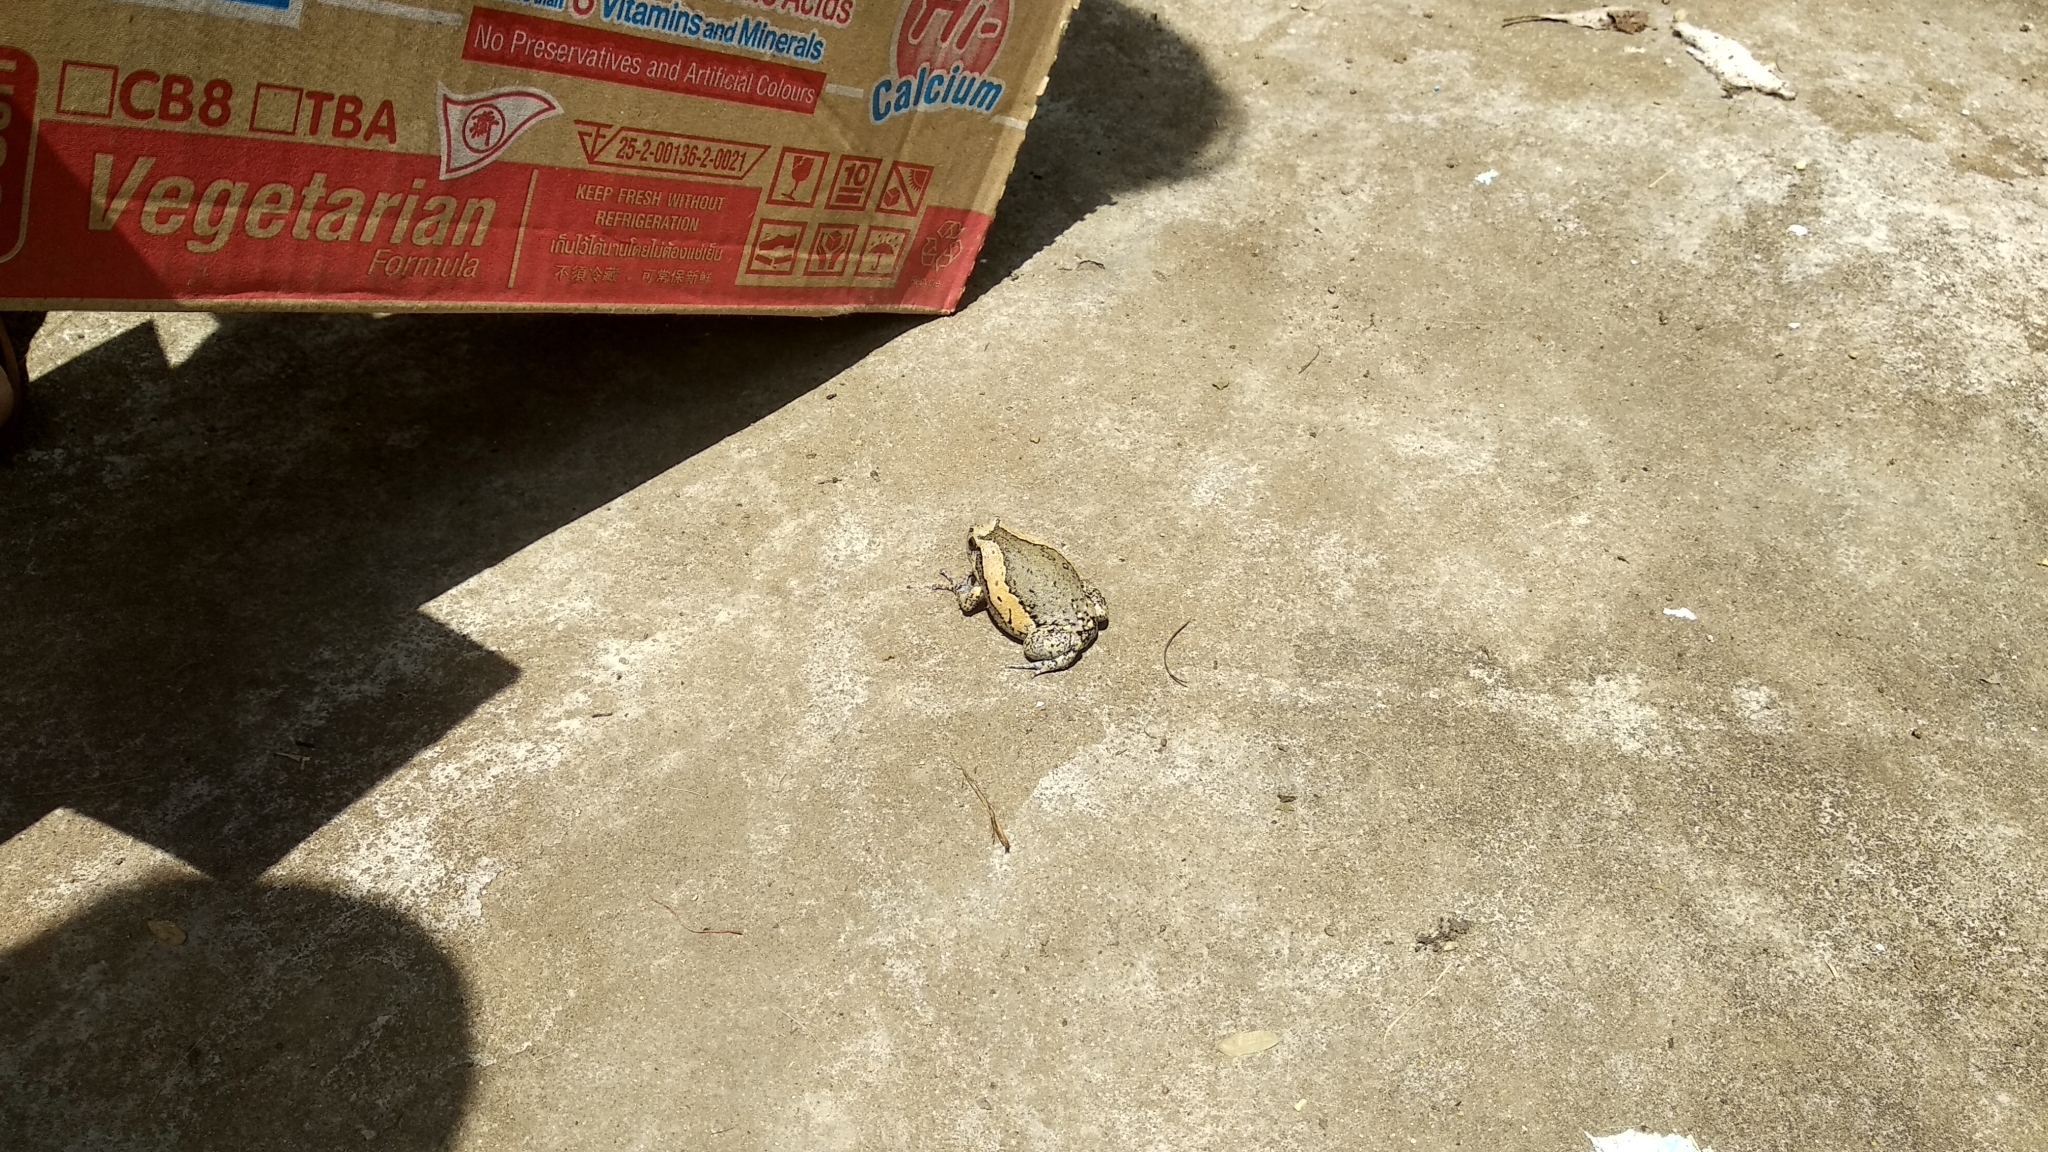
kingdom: Animalia
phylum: Chordata
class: Amphibia
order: Anura
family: Microhylidae
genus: Kaloula
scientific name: Kaloula pulchra
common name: Common,banded bullfrog
